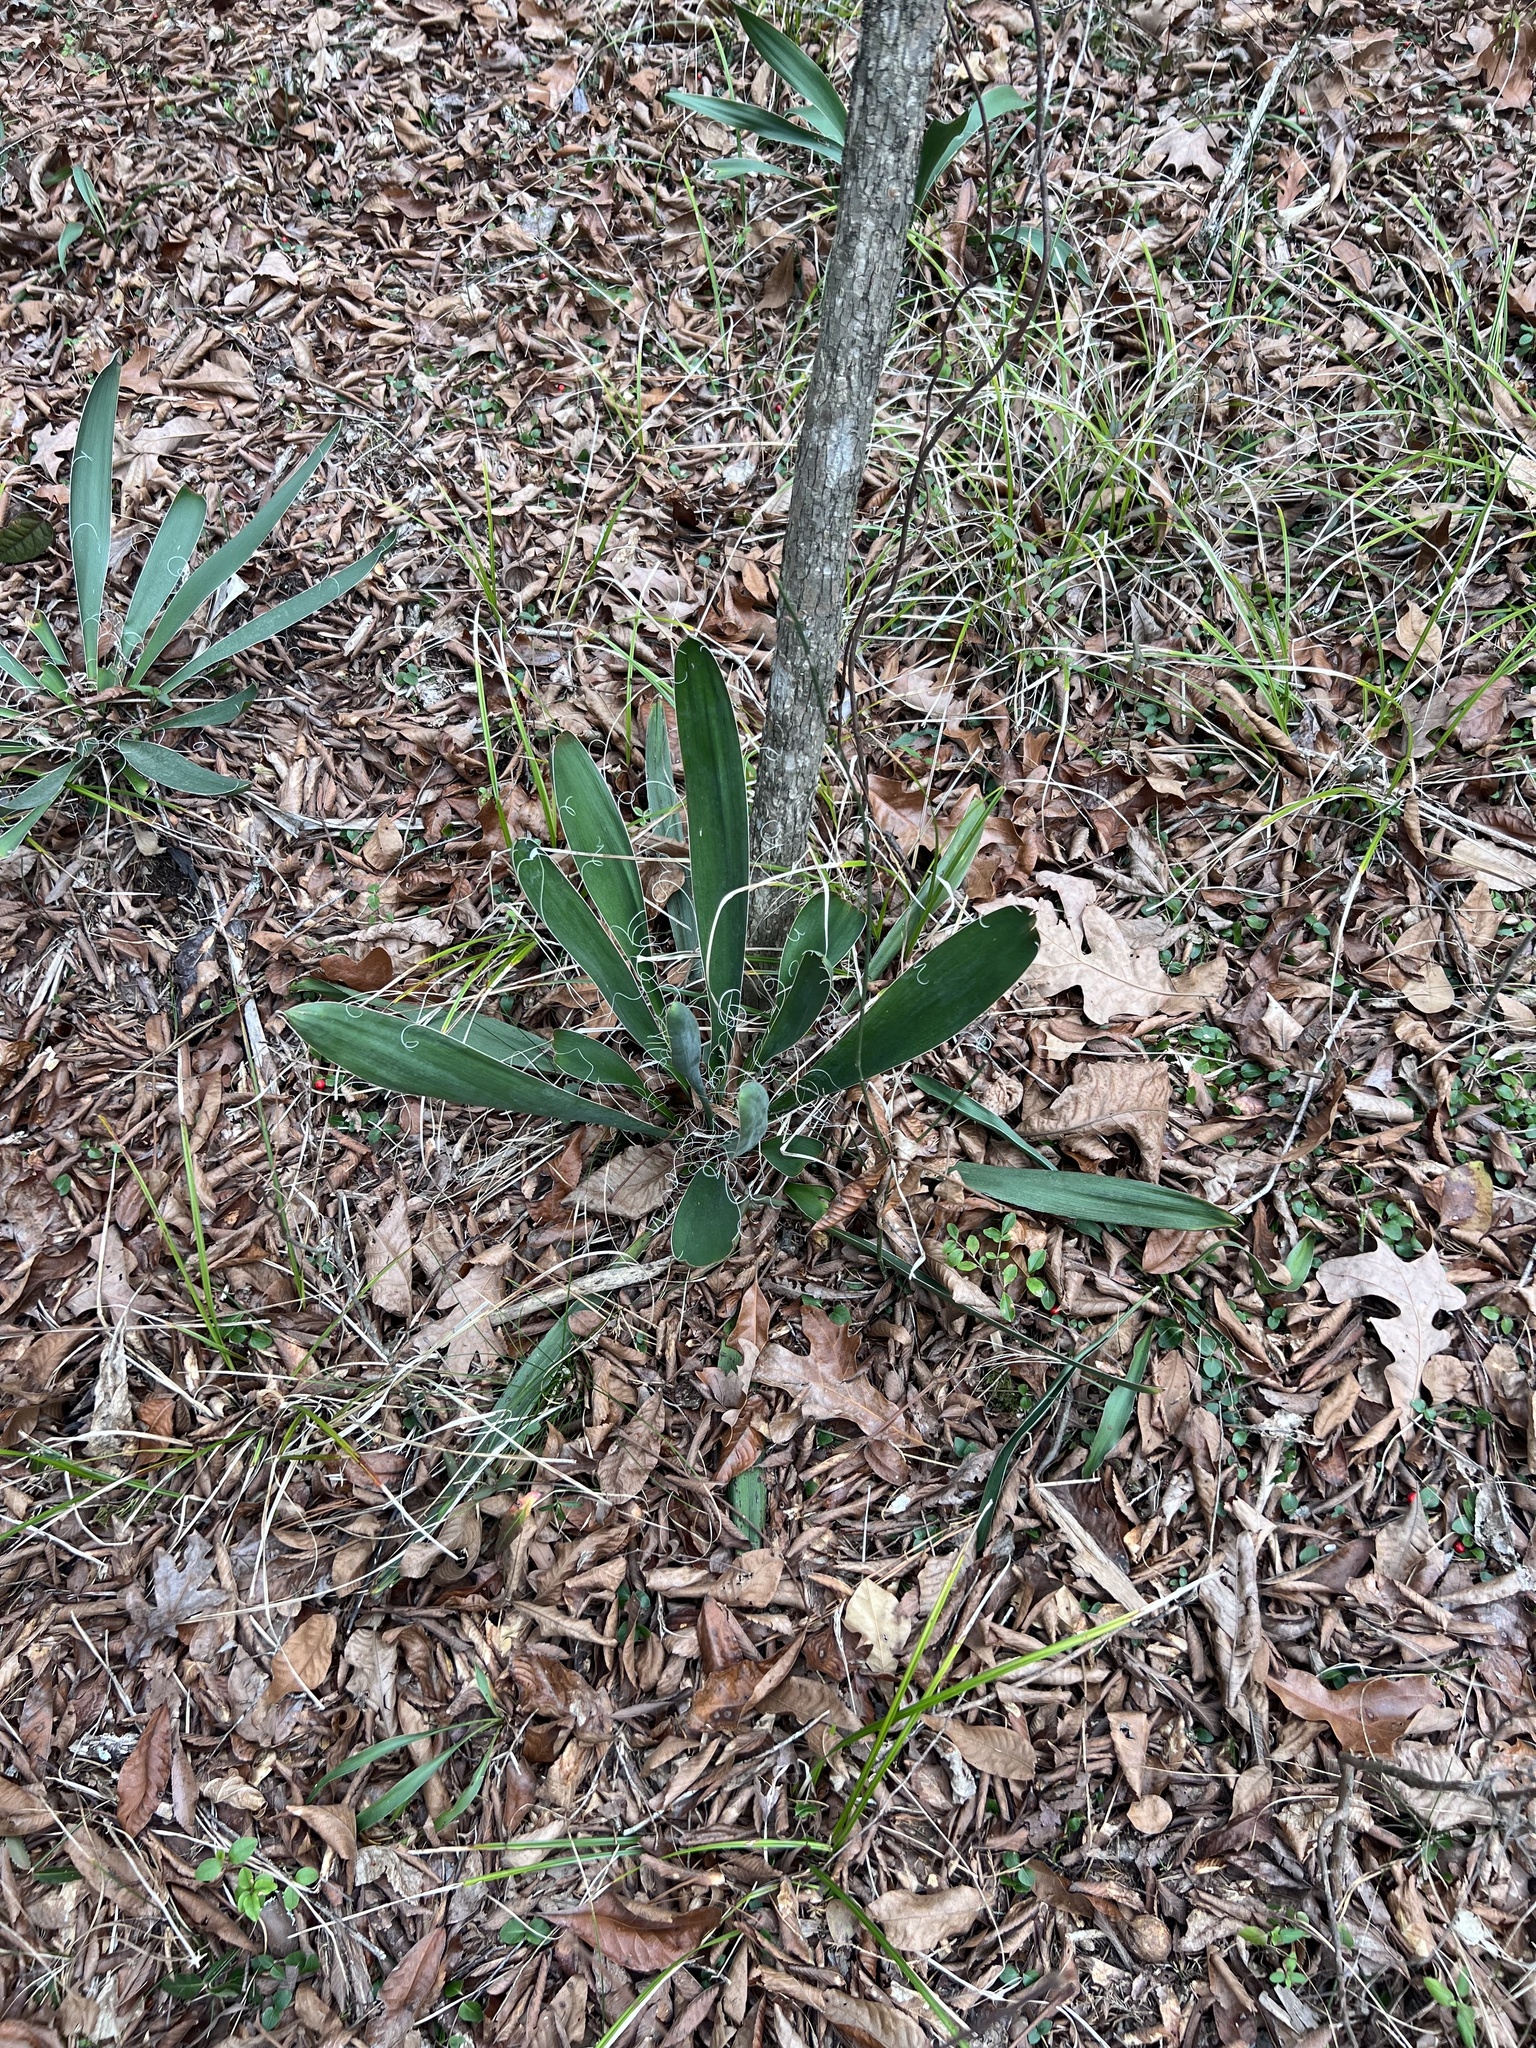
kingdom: Plantae
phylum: Tracheophyta
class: Liliopsida
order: Asparagales
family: Asparagaceae
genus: Yucca
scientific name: Yucca filamentosa
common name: Adam's-needle
